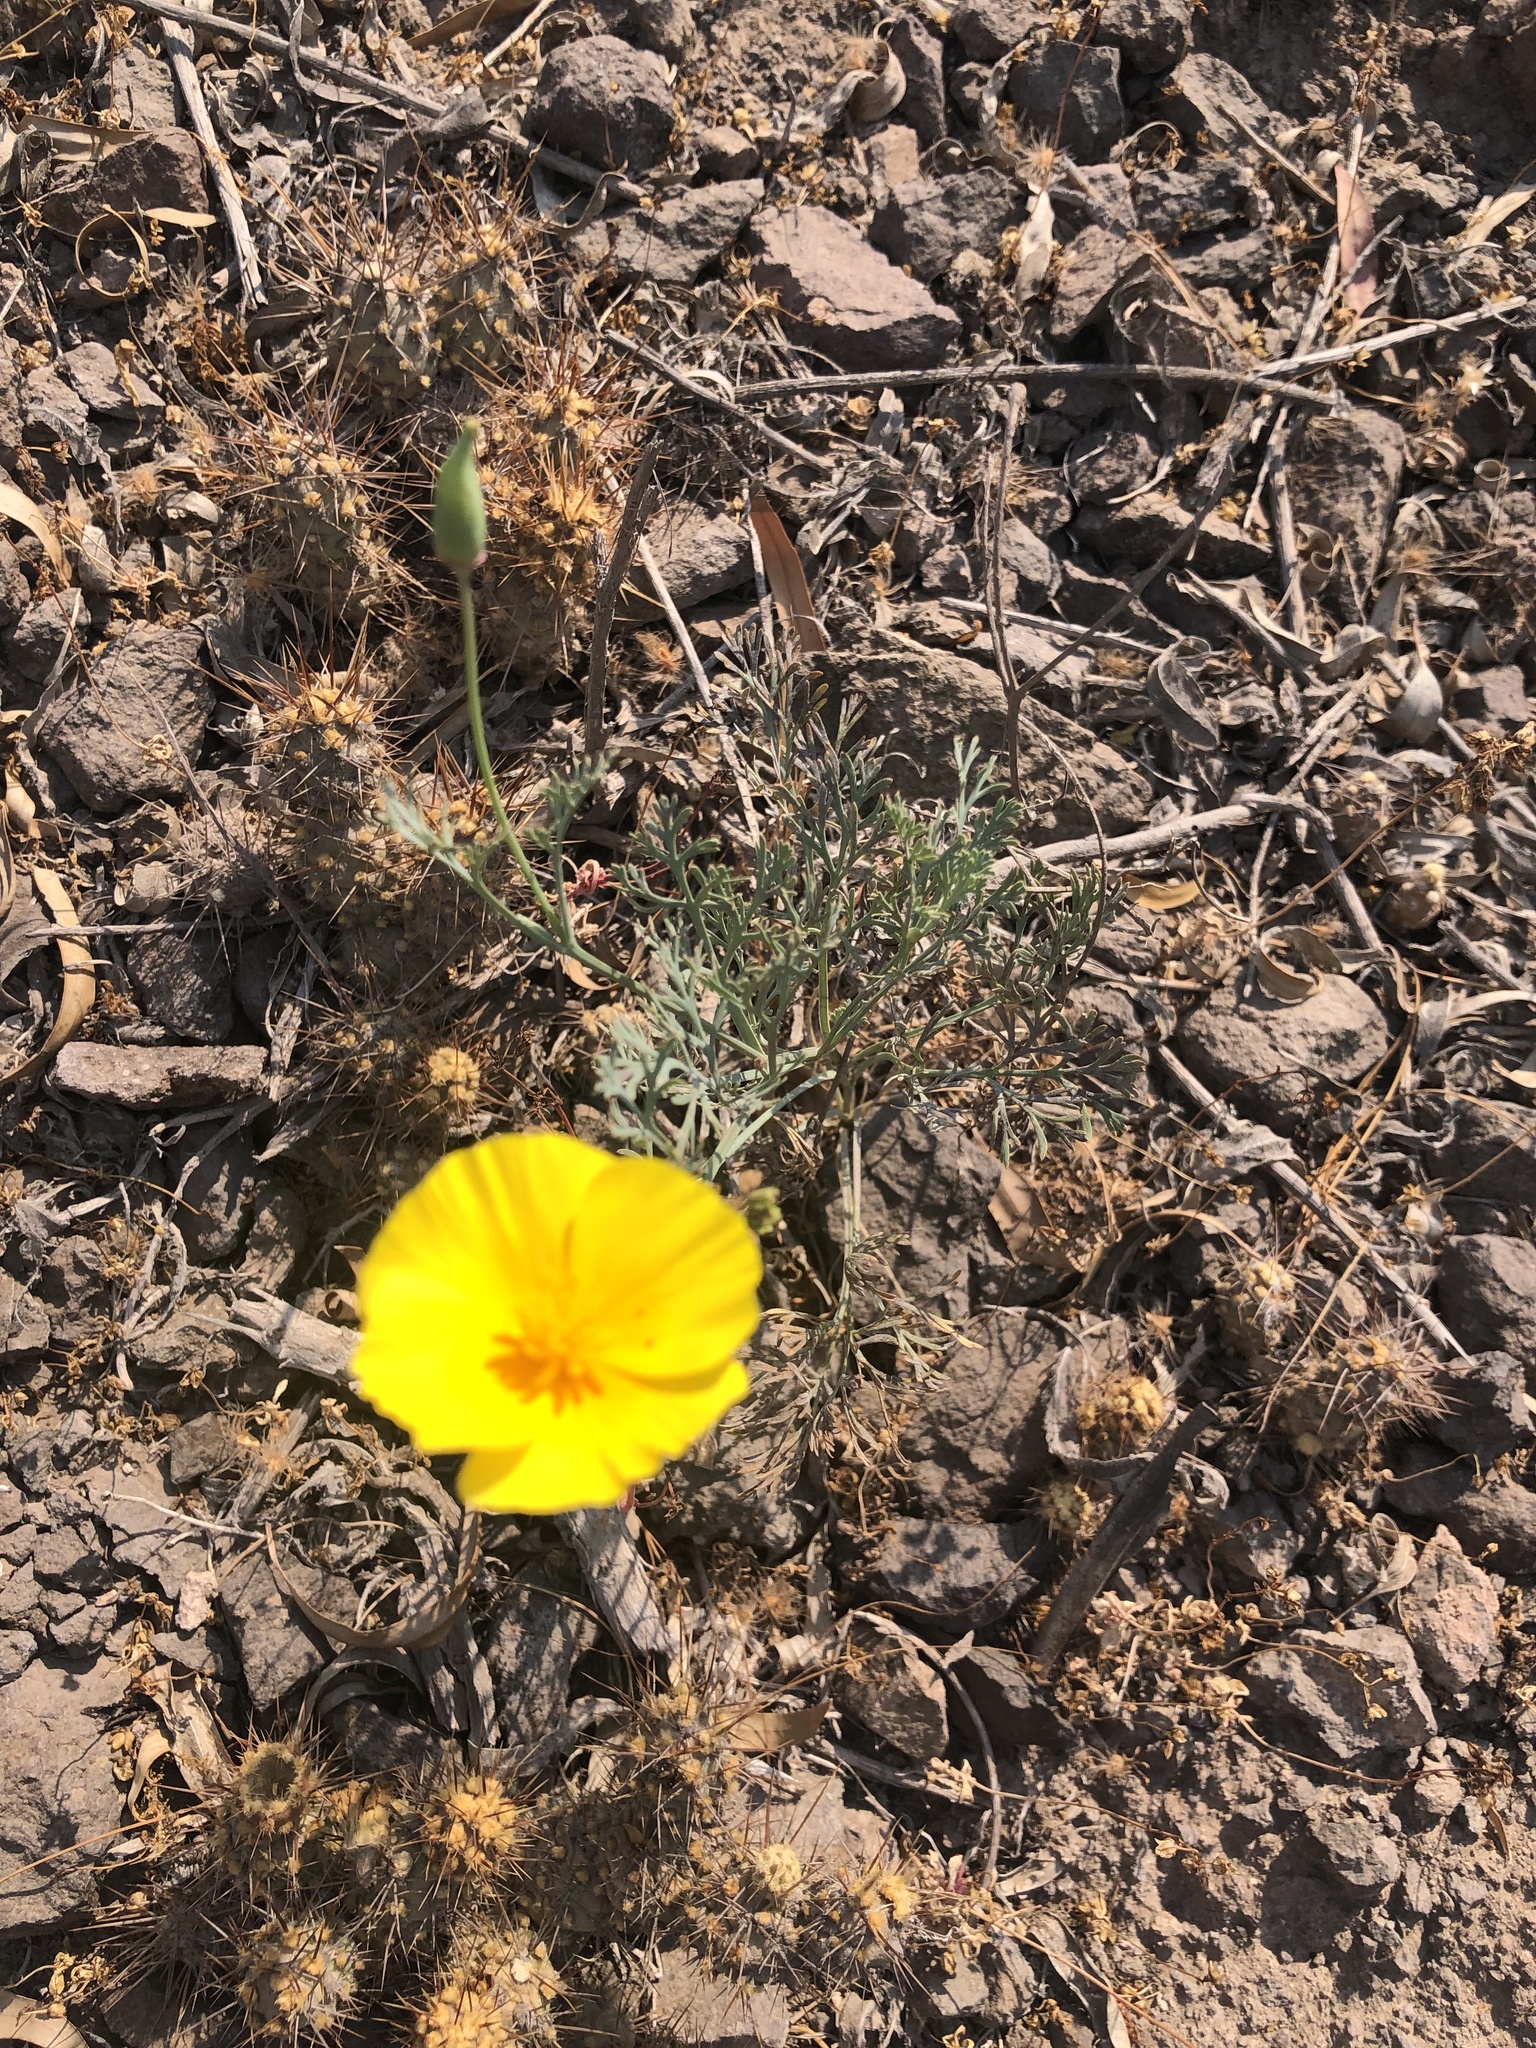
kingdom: Plantae
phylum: Tracheophyta
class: Magnoliopsida
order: Ranunculales
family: Papaveraceae
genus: Eschscholzia
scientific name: Eschscholzia californica
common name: California poppy
